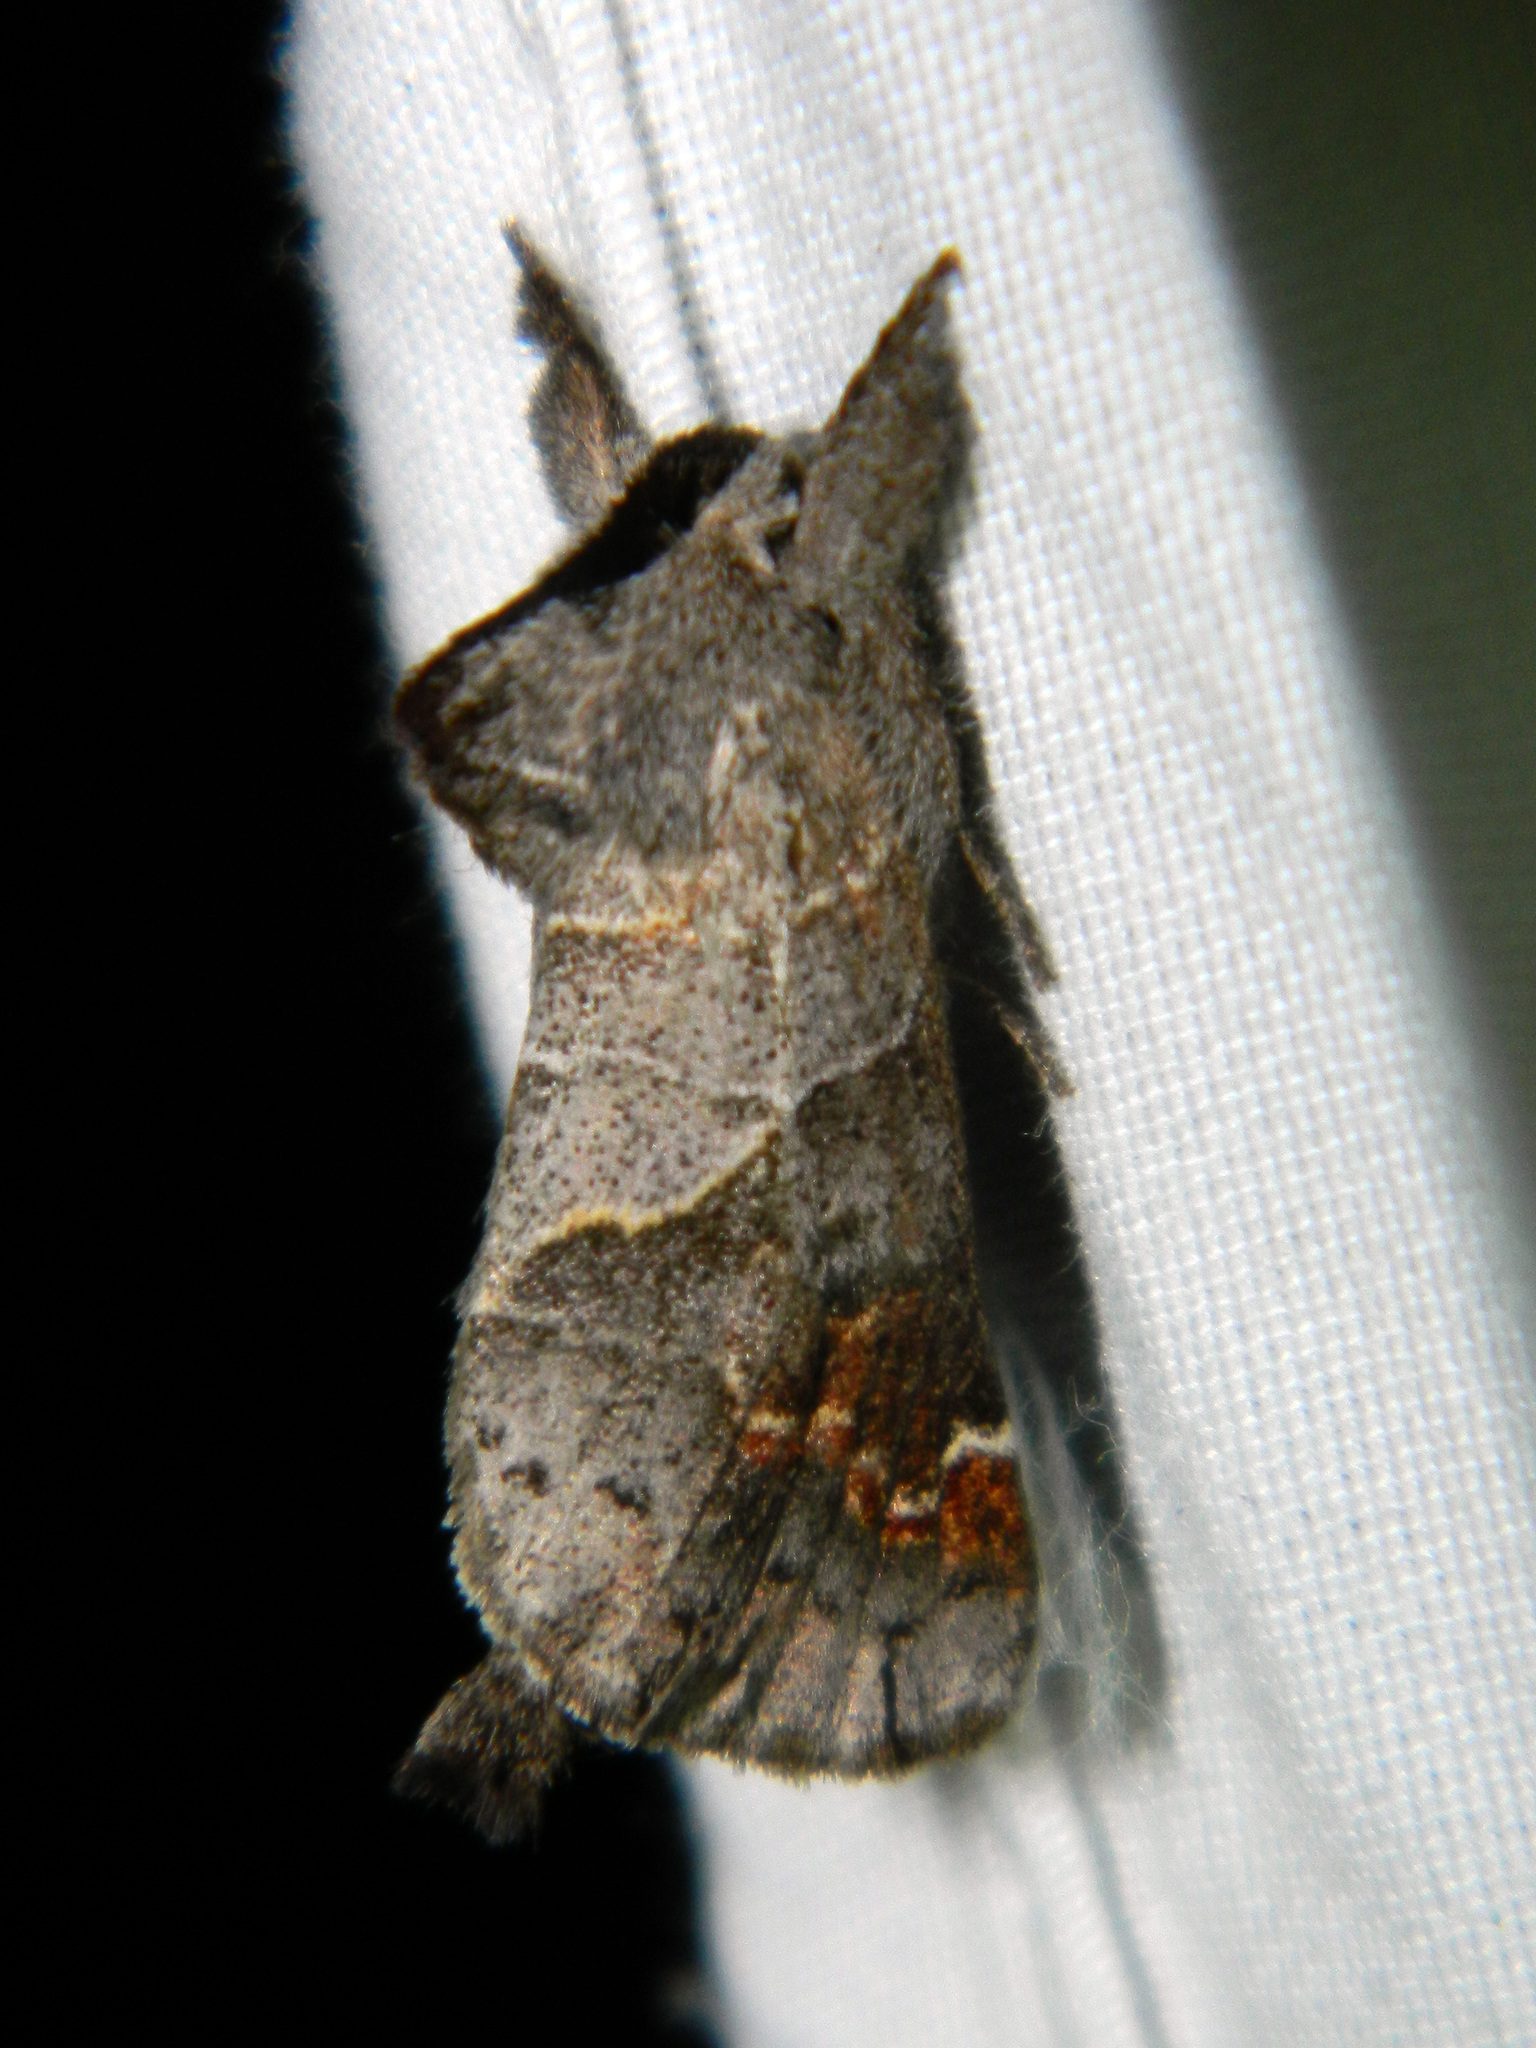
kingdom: Animalia
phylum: Arthropoda
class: Insecta
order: Lepidoptera
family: Notodontidae
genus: Clostera
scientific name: Clostera apicalis
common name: Apical prominent
